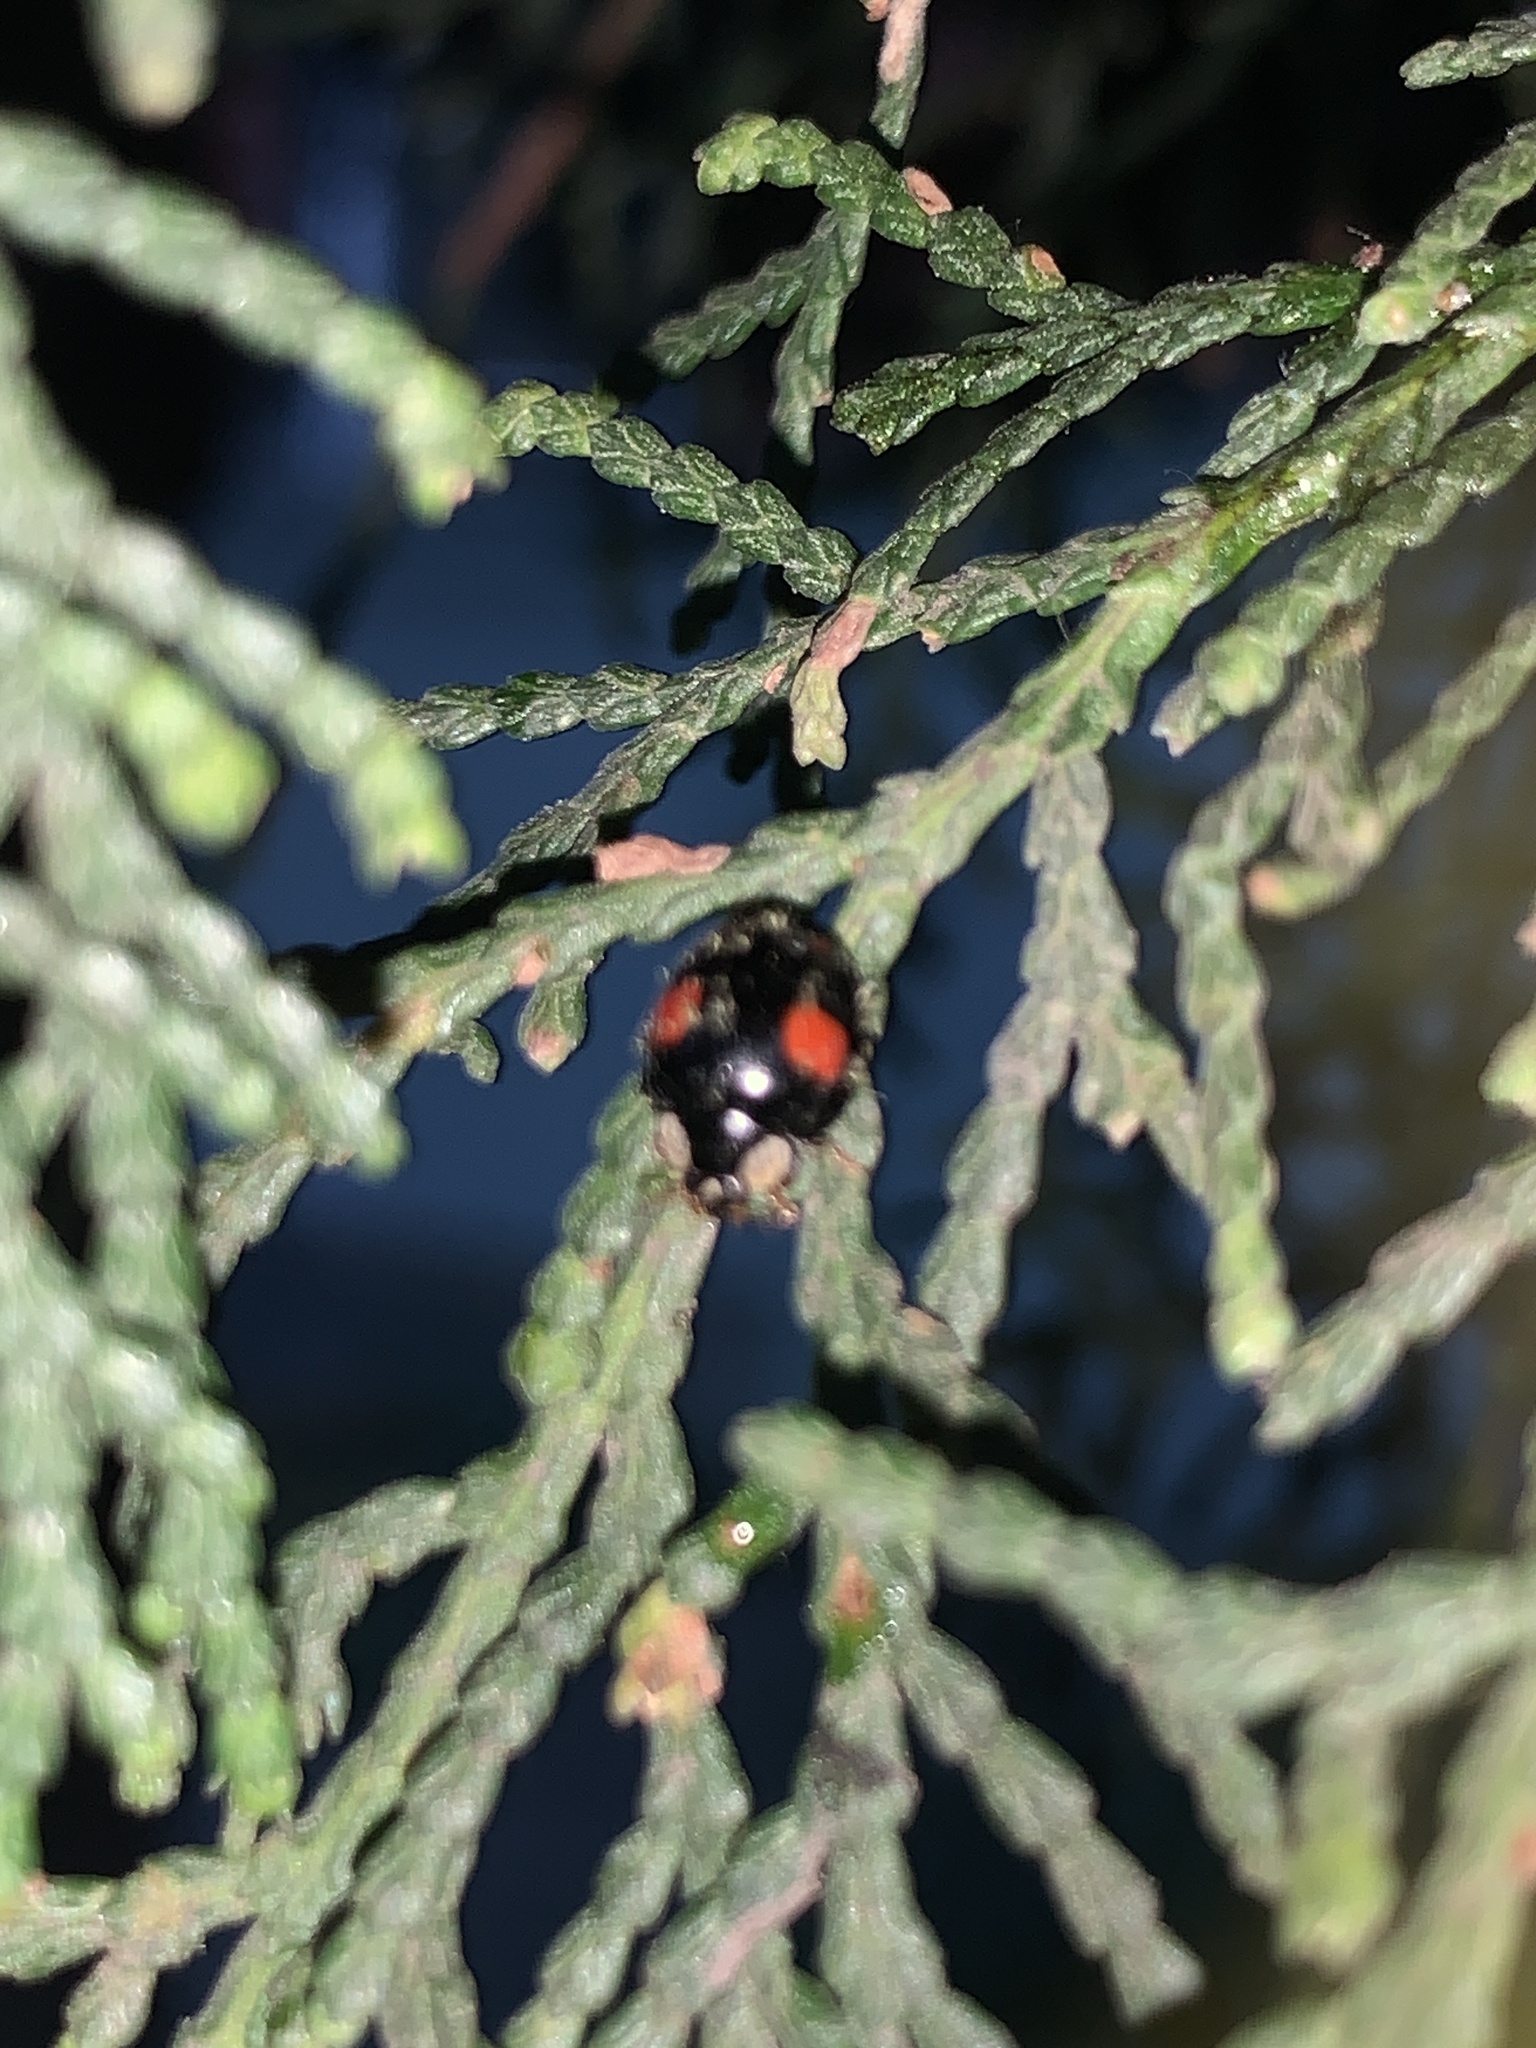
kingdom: Animalia
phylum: Arthropoda
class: Insecta
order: Coleoptera
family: Coccinellidae
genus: Harmonia
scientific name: Harmonia axyridis
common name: Harlequin ladybird
